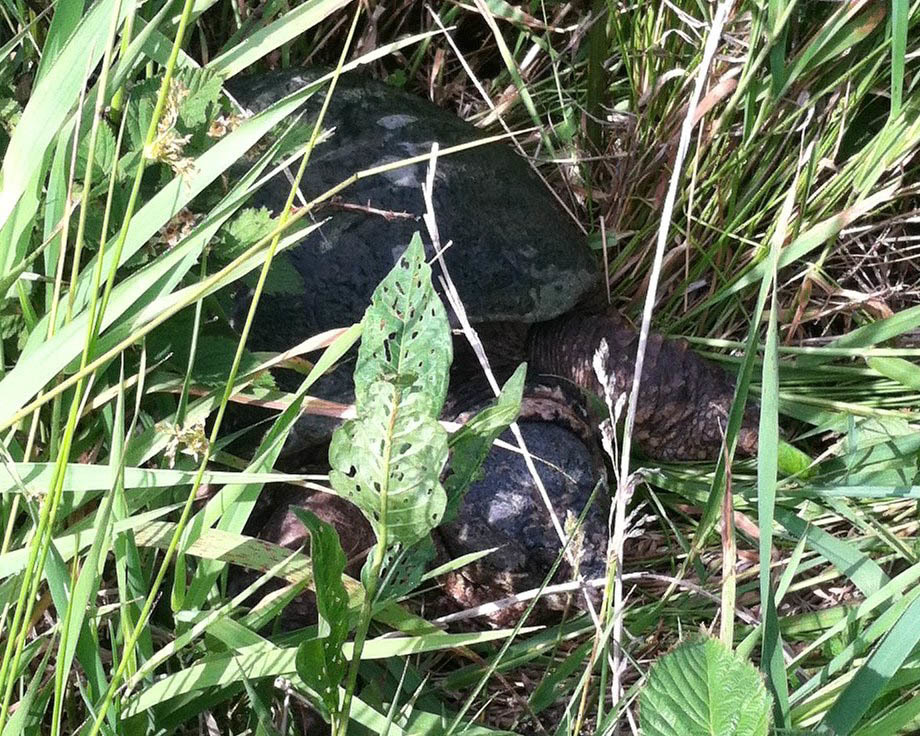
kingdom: Animalia
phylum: Chordata
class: Testudines
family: Chelydridae
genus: Chelydra
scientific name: Chelydra serpentina
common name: Common snapping turtle
